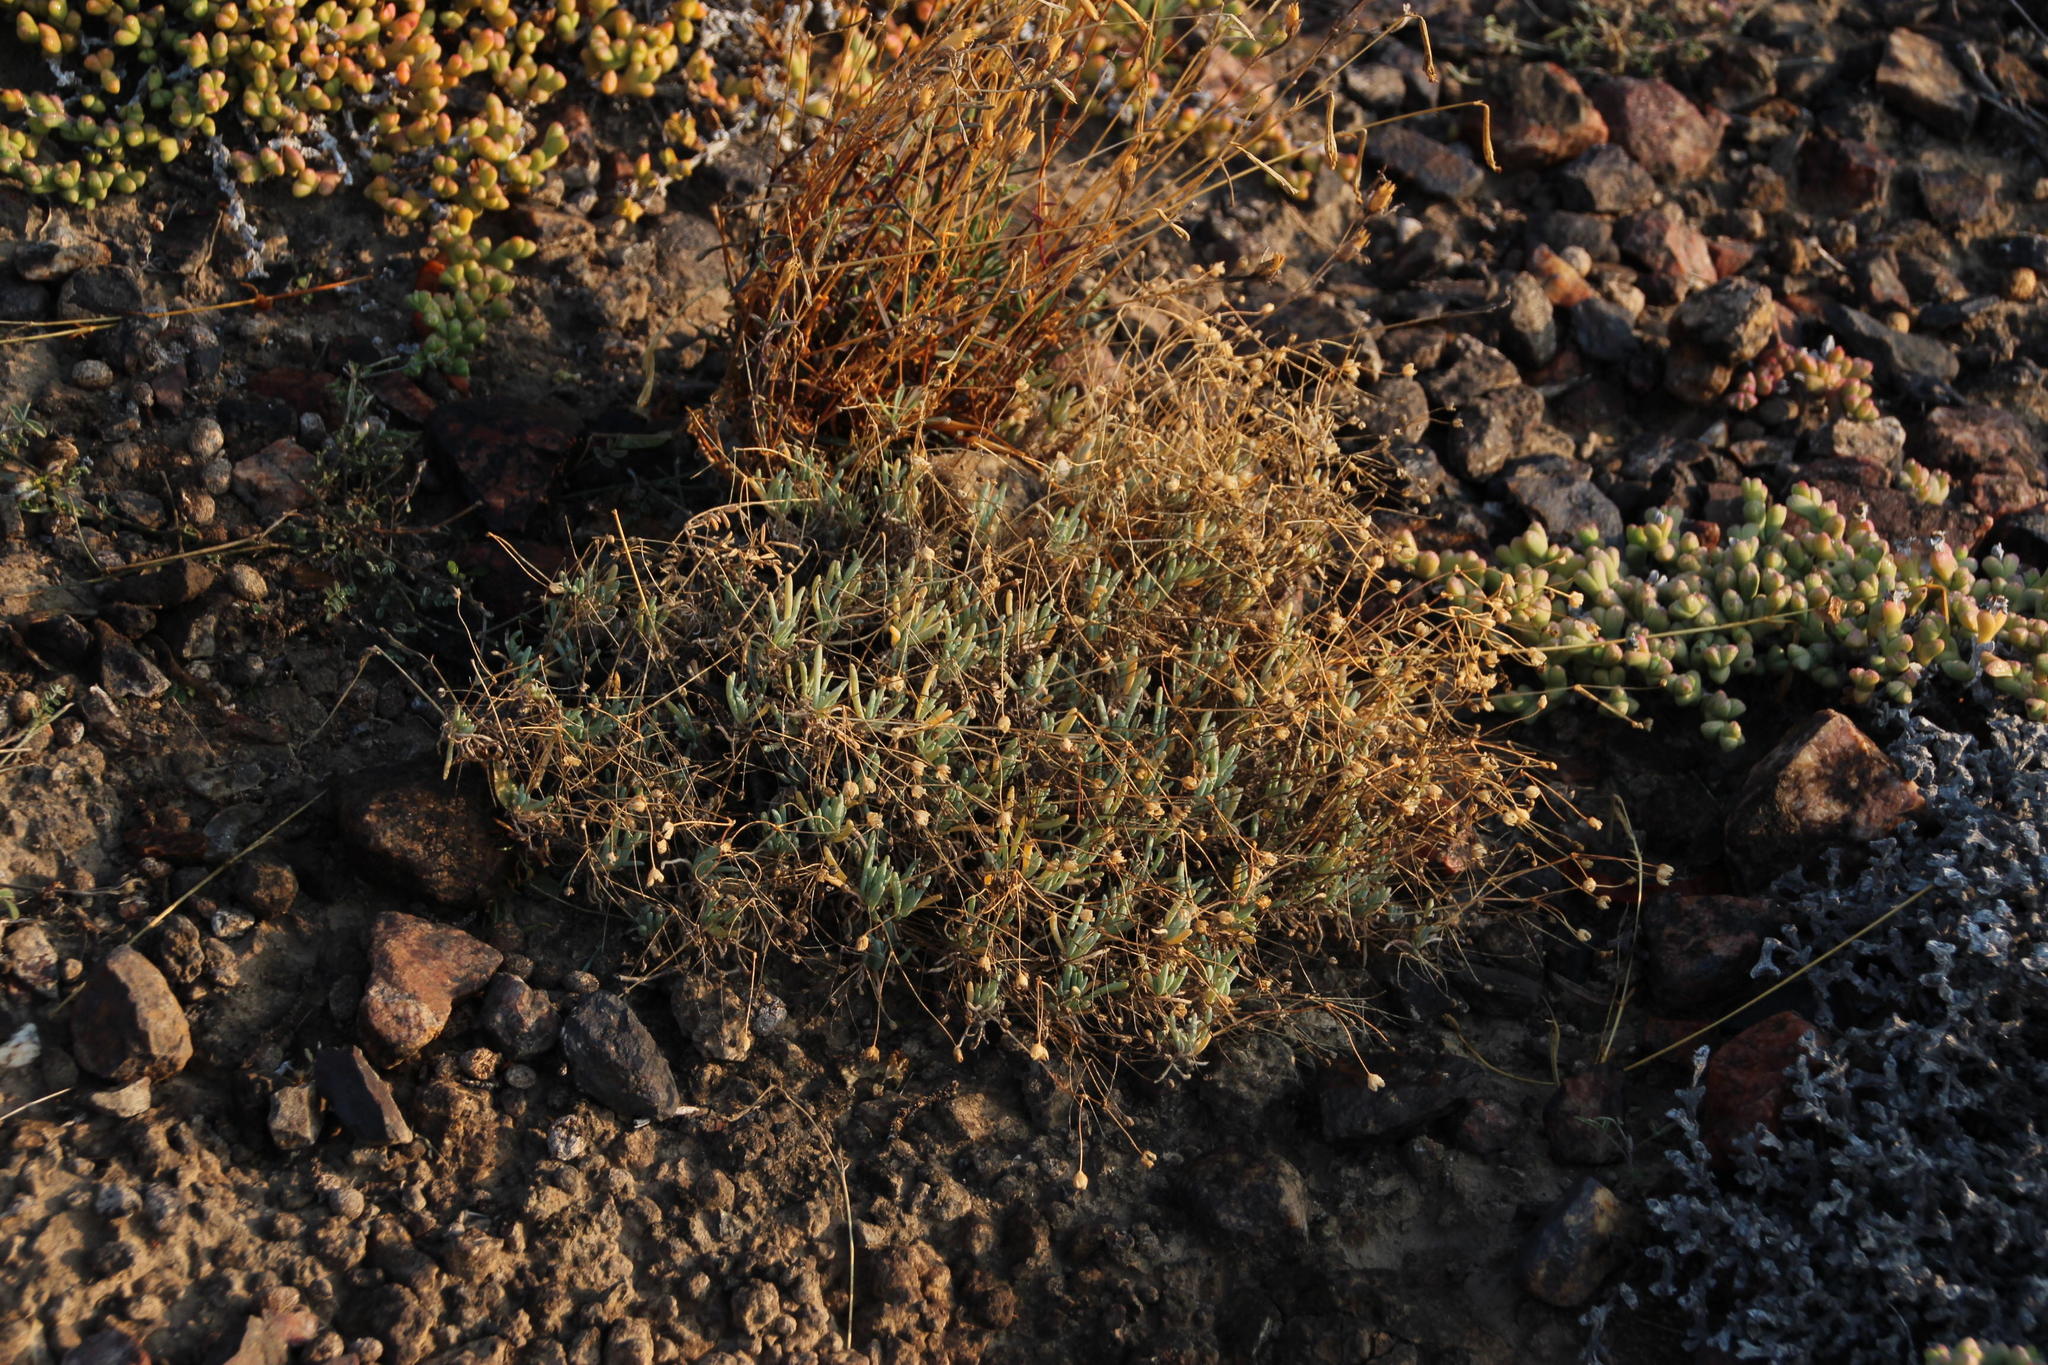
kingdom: Plantae
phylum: Tracheophyta
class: Magnoliopsida
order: Caryophyllales
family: Kewaceae
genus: Kewa
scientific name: Kewa salsoloides
